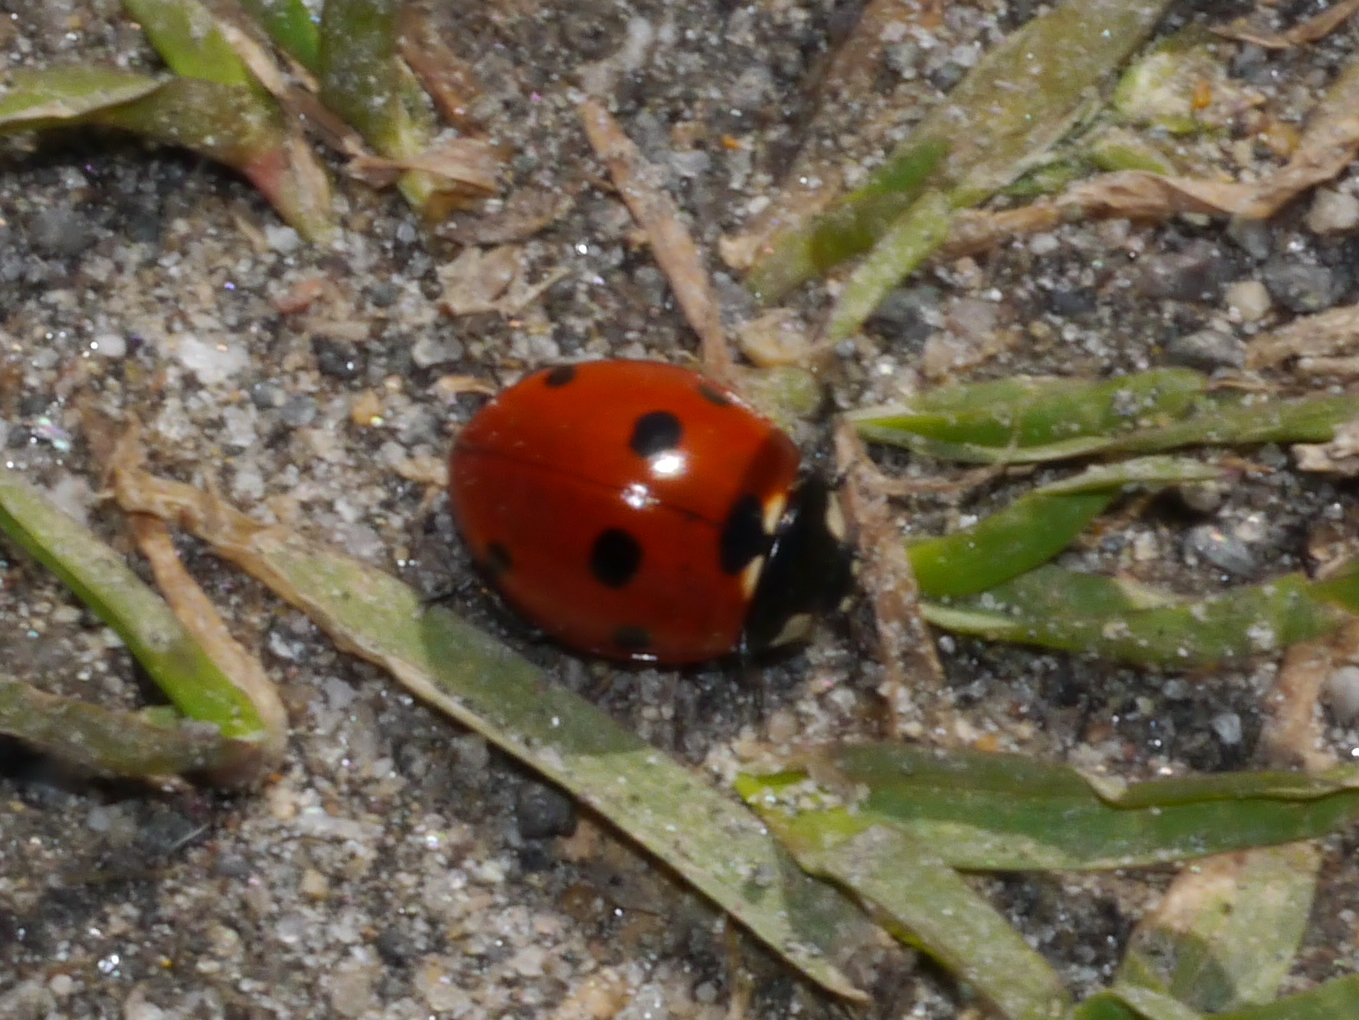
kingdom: Animalia
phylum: Arthropoda
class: Insecta
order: Coleoptera
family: Coccinellidae
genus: Coccinella
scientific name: Coccinella septempunctata
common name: Sevenspotted lady beetle
